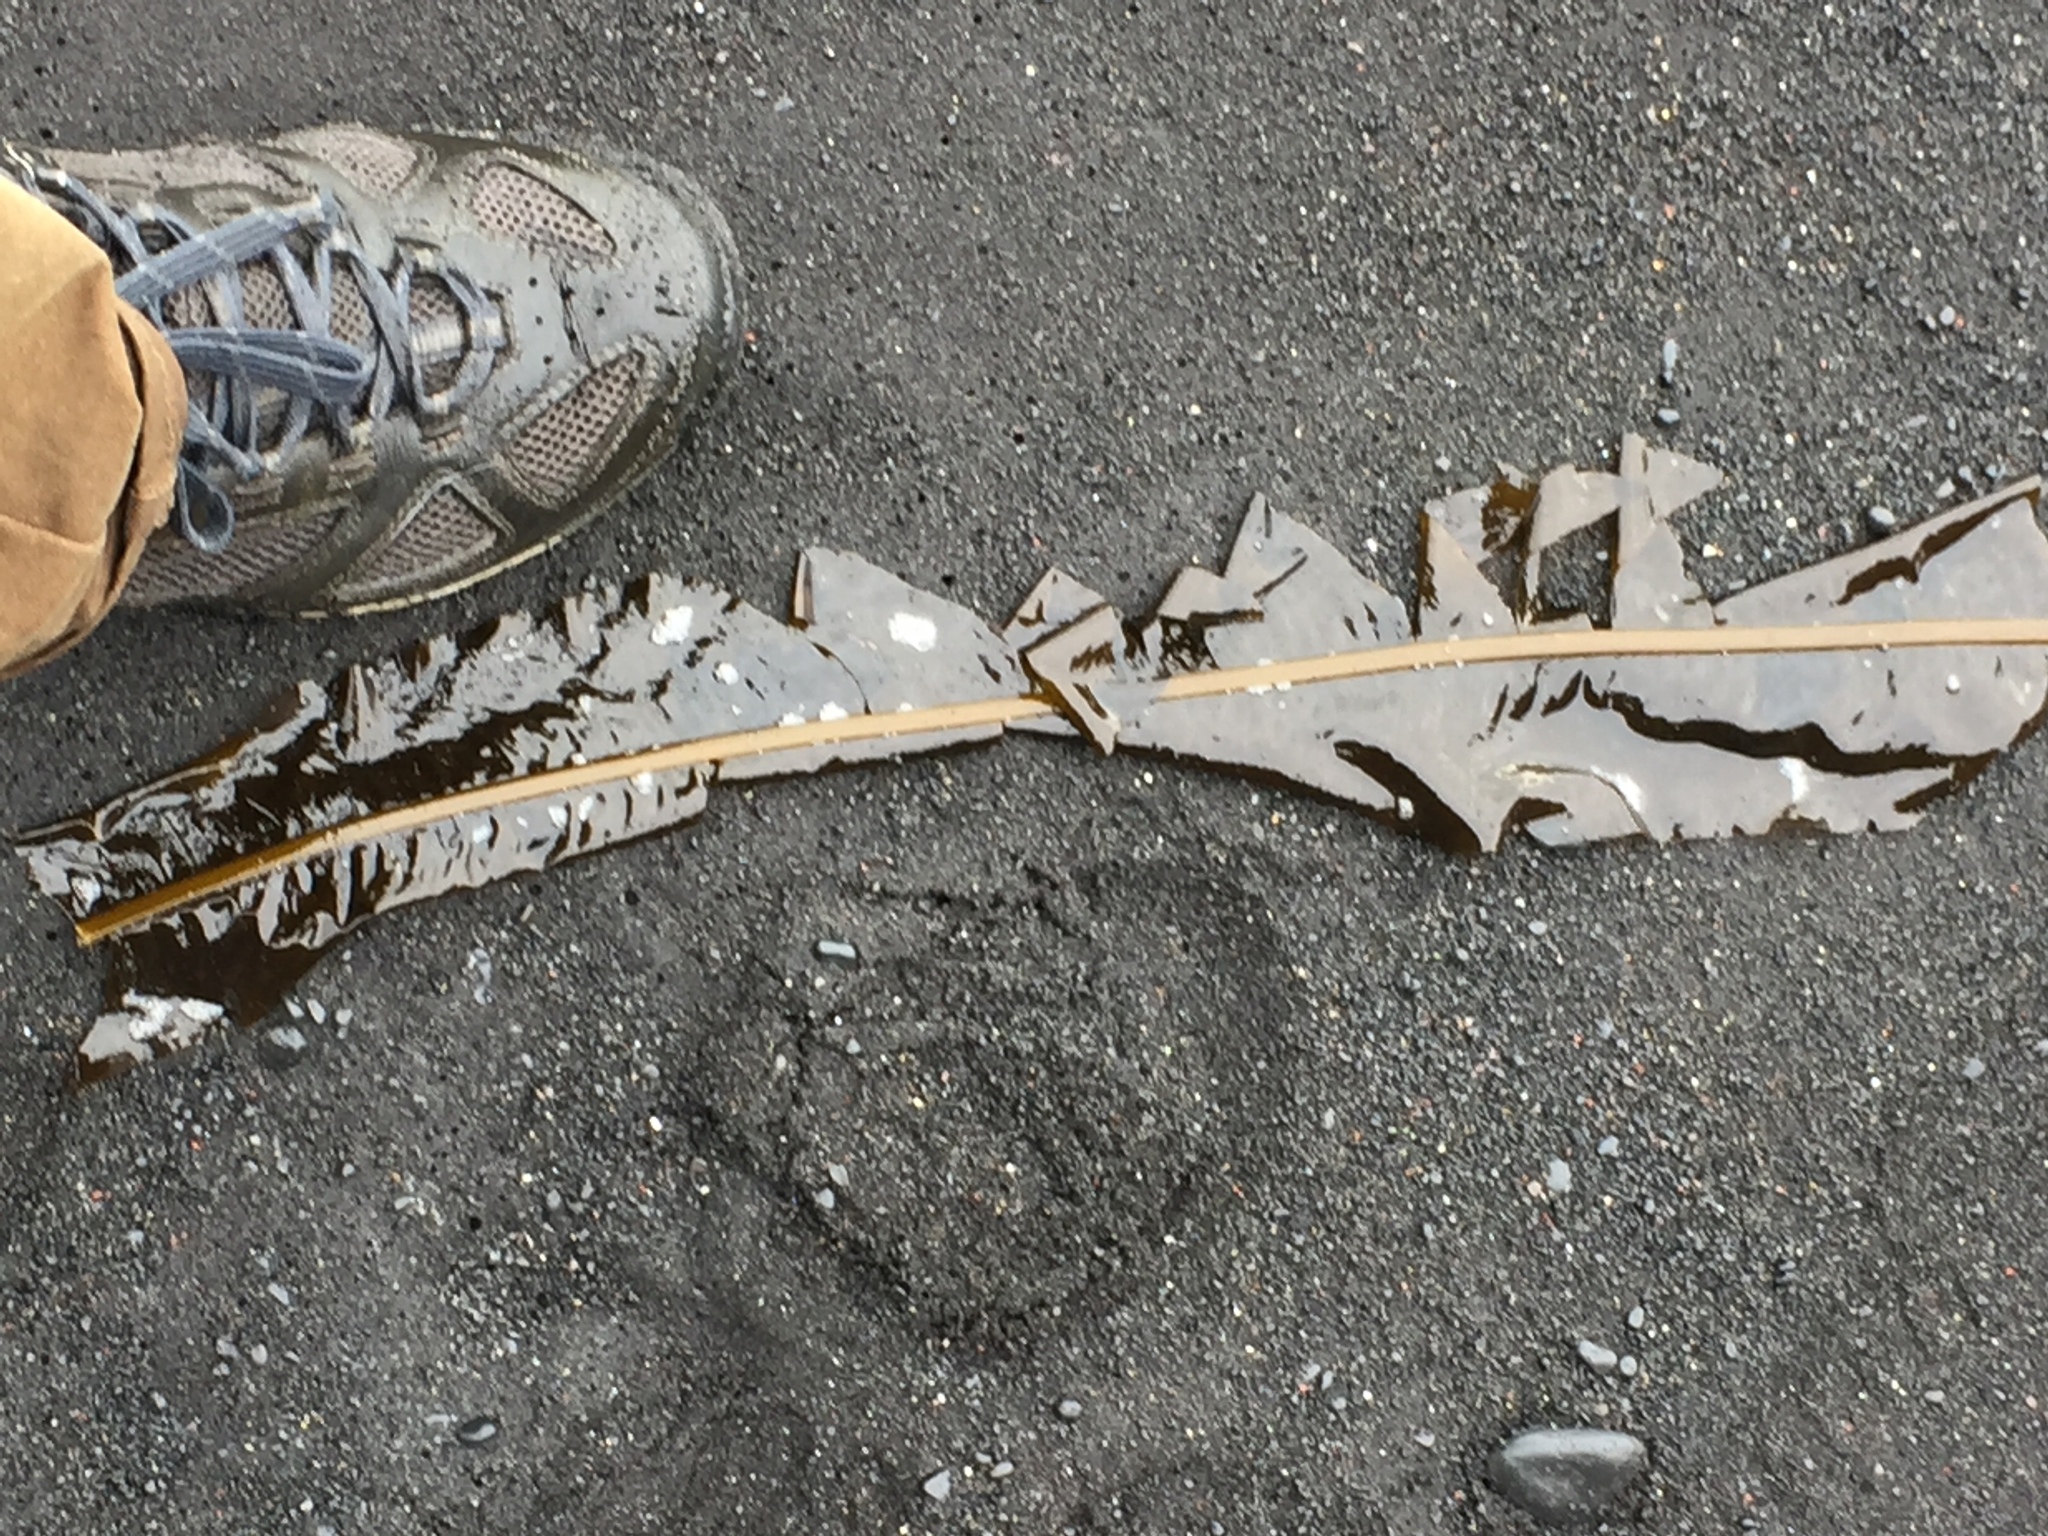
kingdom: Chromista
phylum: Ochrophyta
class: Phaeophyceae
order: Laminariales
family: Alariaceae
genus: Alaria
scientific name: Alaria esculenta
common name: Dabberlocks
